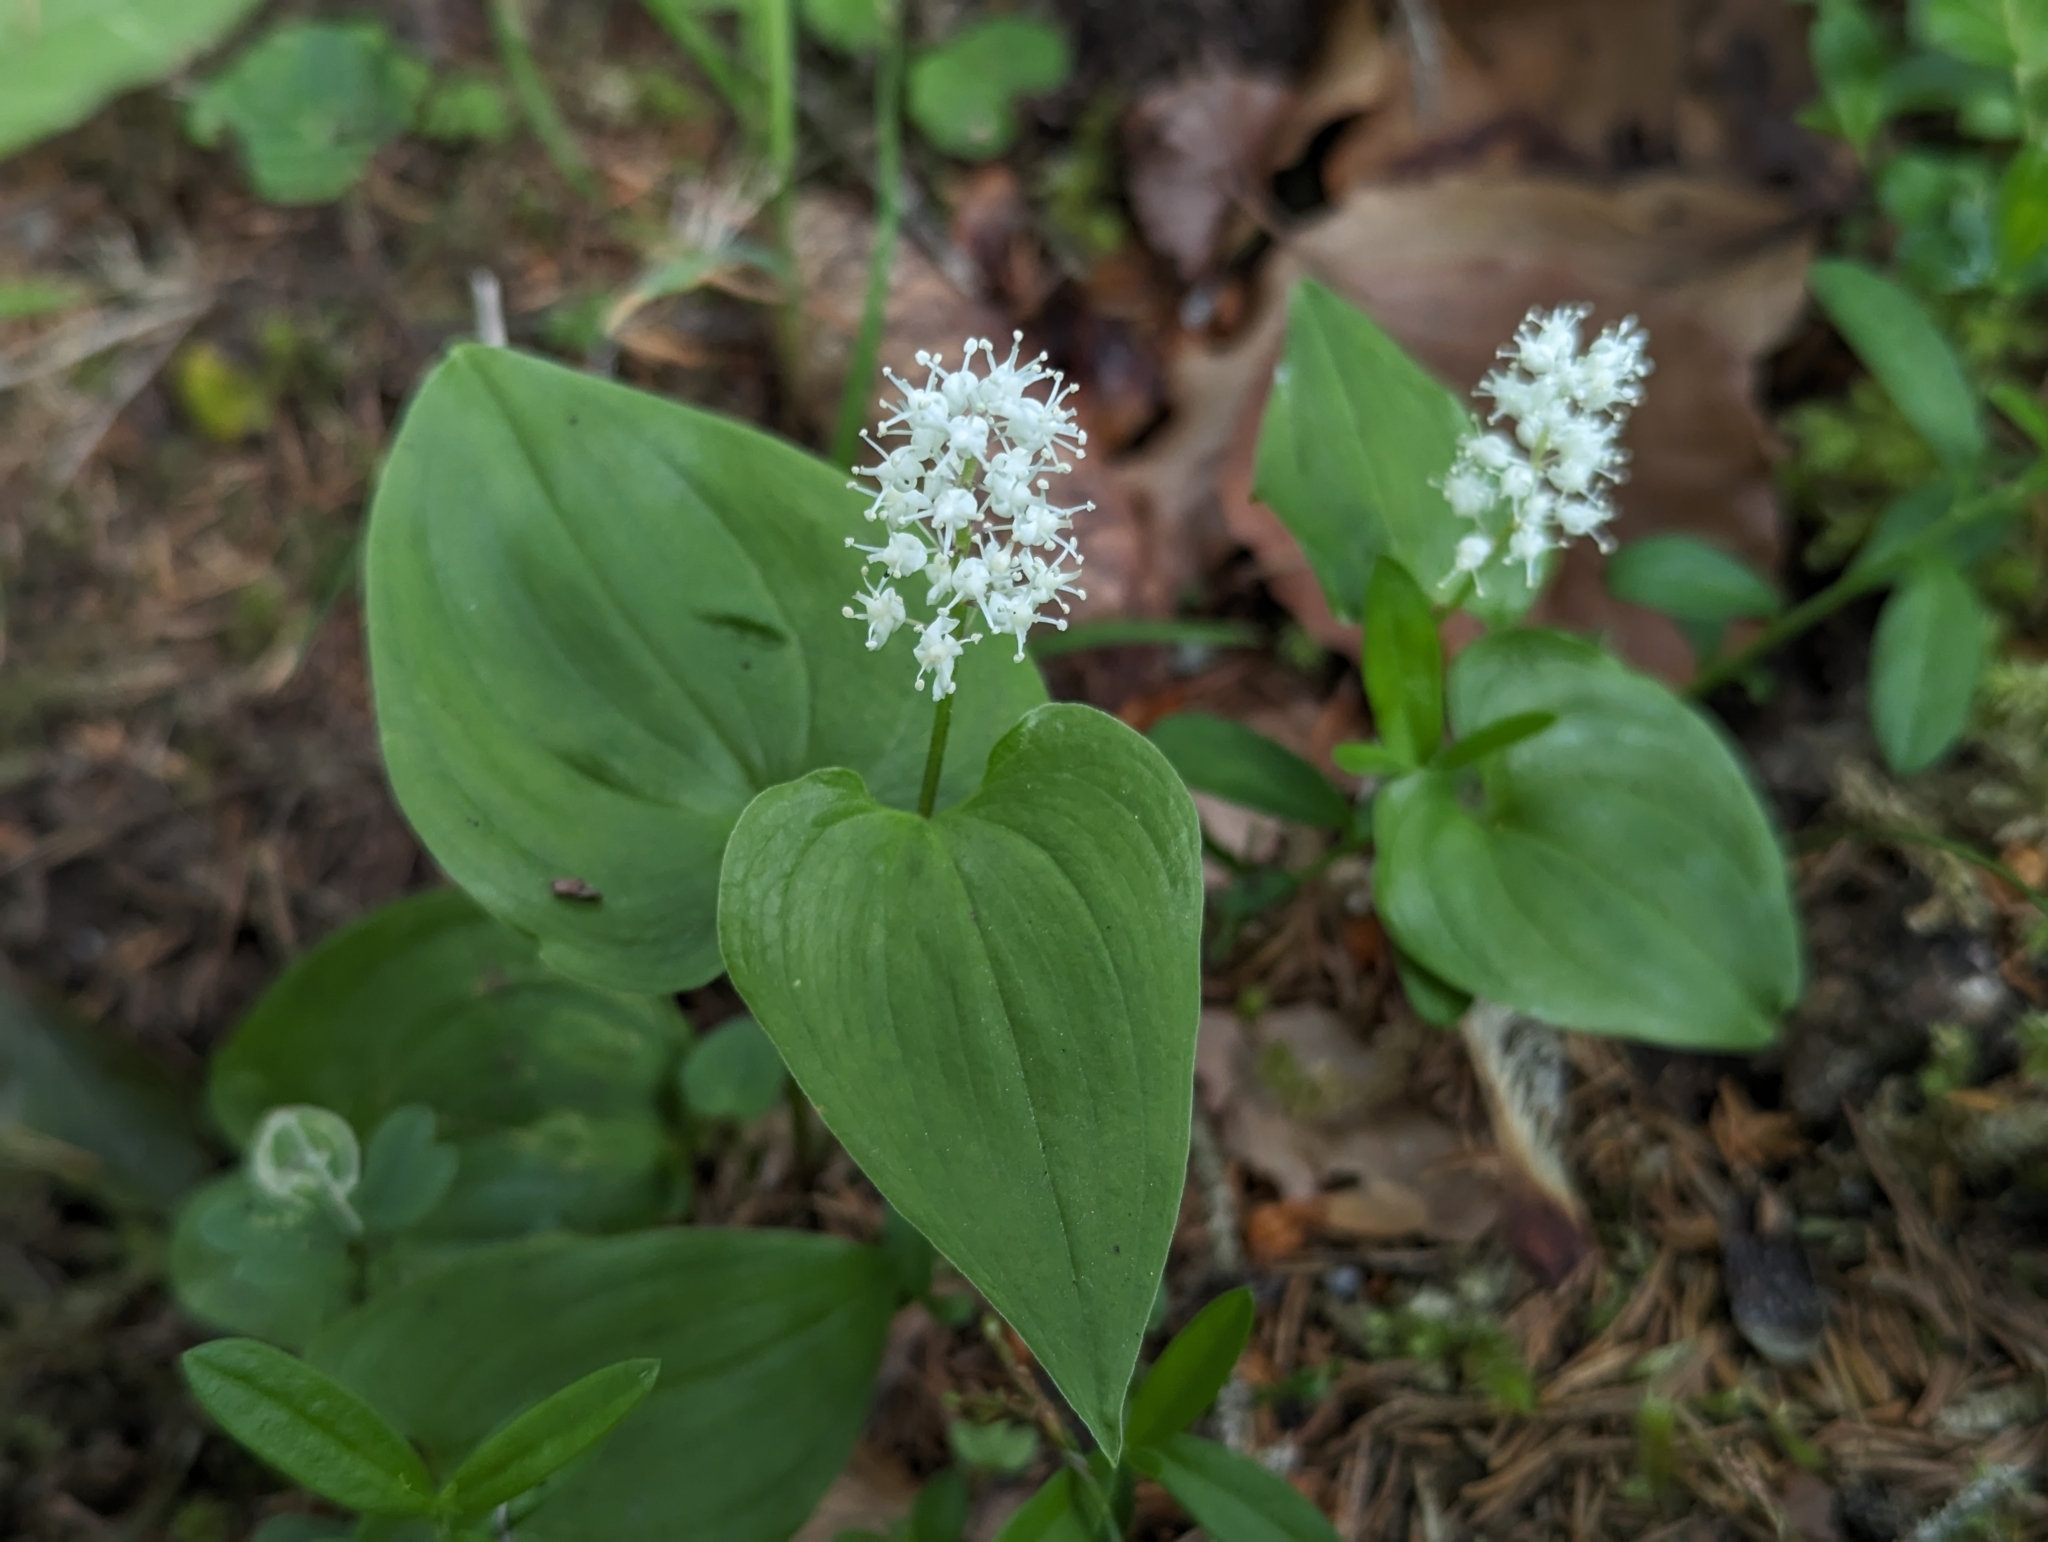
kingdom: Plantae
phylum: Tracheophyta
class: Liliopsida
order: Asparagales
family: Asparagaceae
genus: Maianthemum
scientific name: Maianthemum bifolium
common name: May lily
